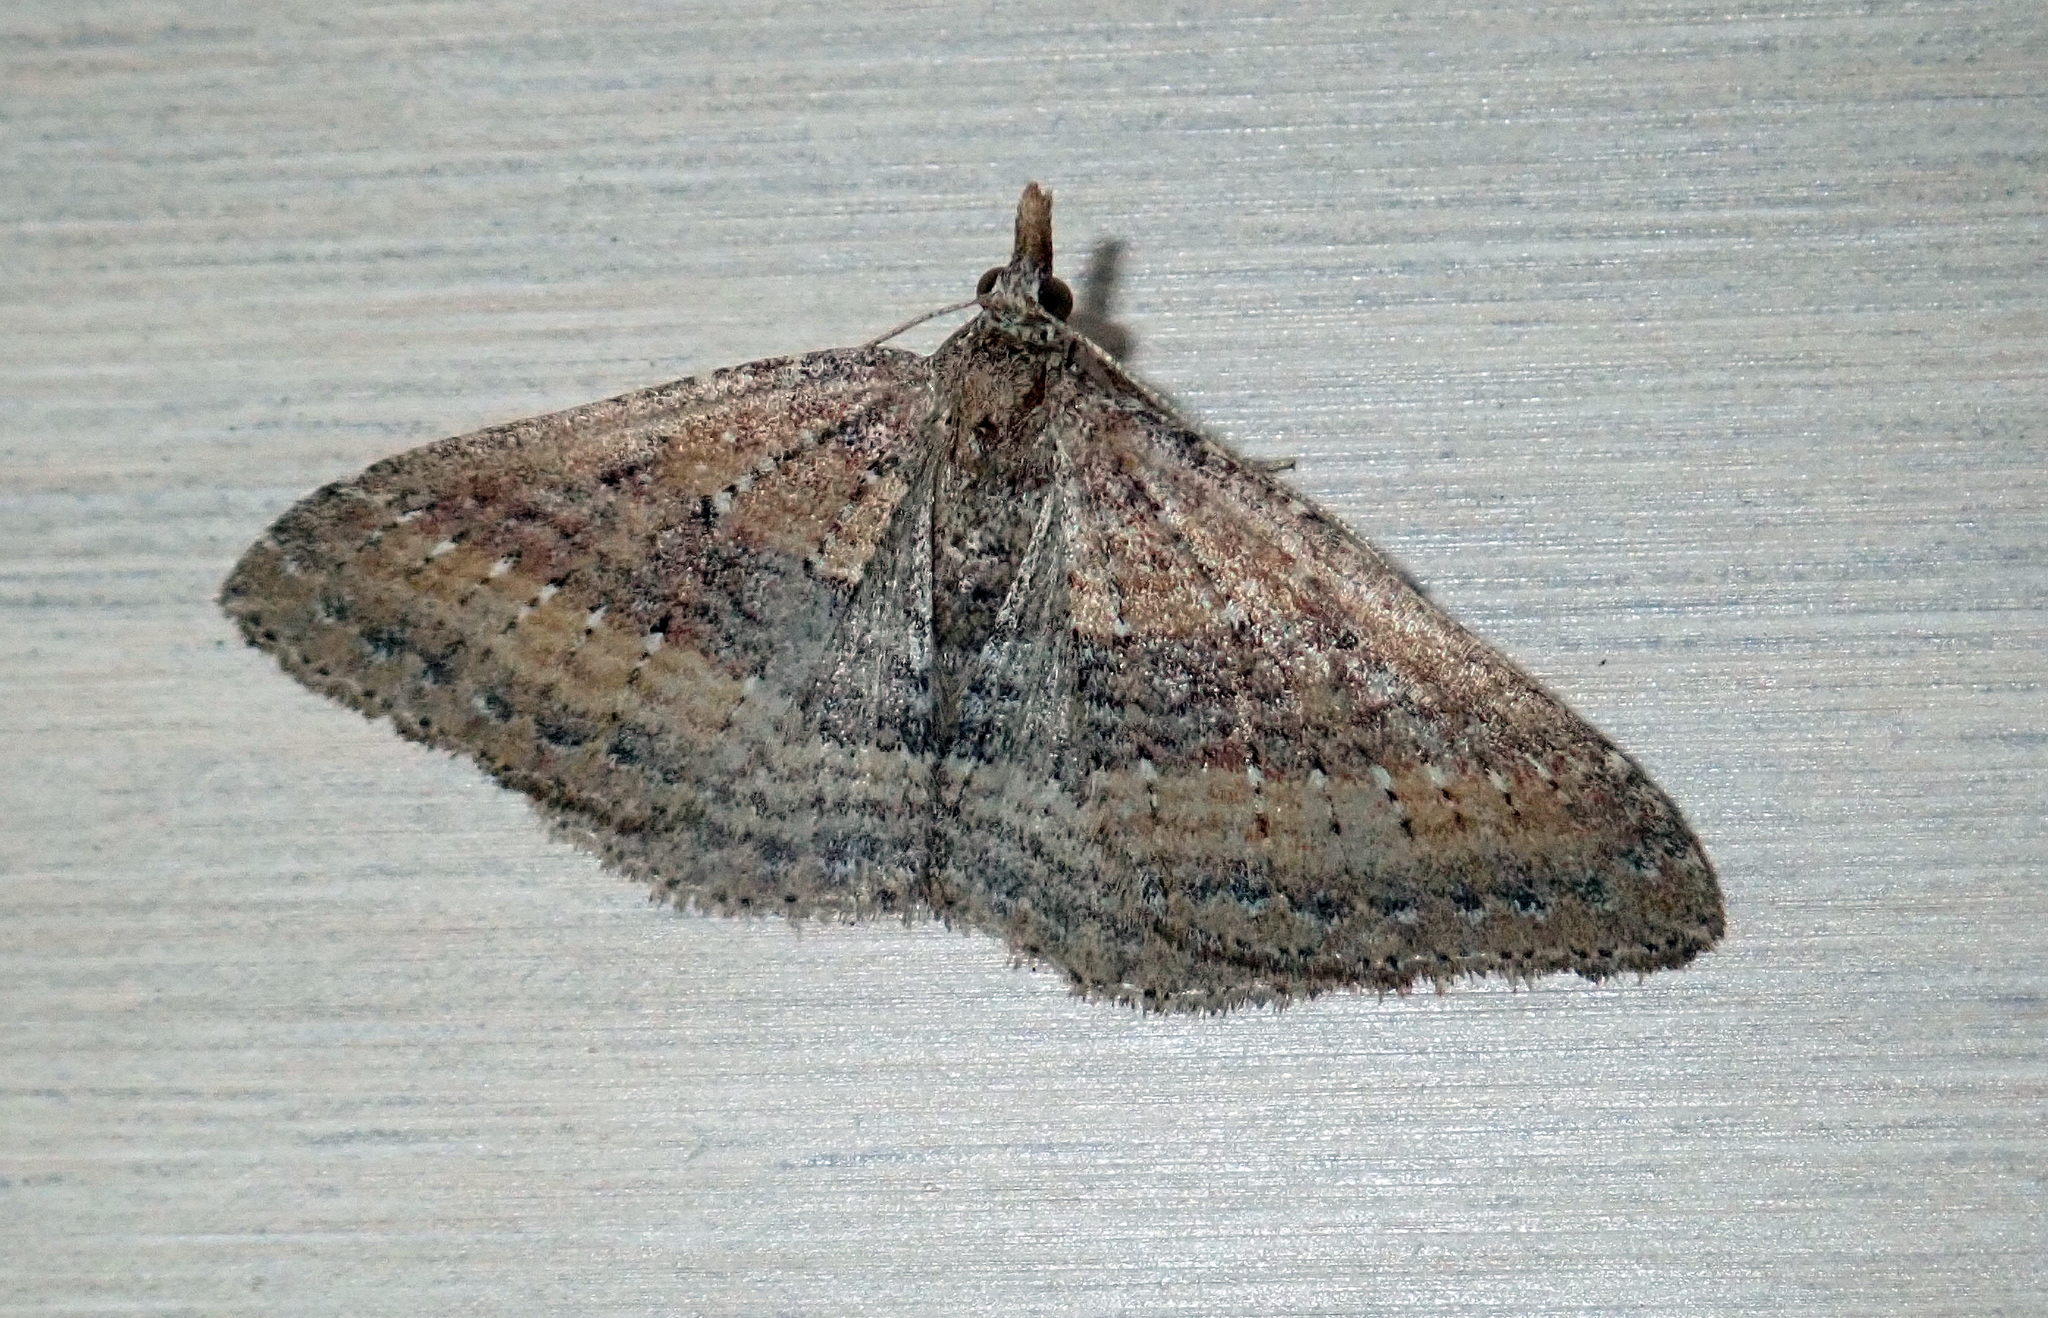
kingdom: Animalia
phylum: Arthropoda
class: Insecta
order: Lepidoptera
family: Geometridae
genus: Epyaxa
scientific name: Epyaxa venipunctata
